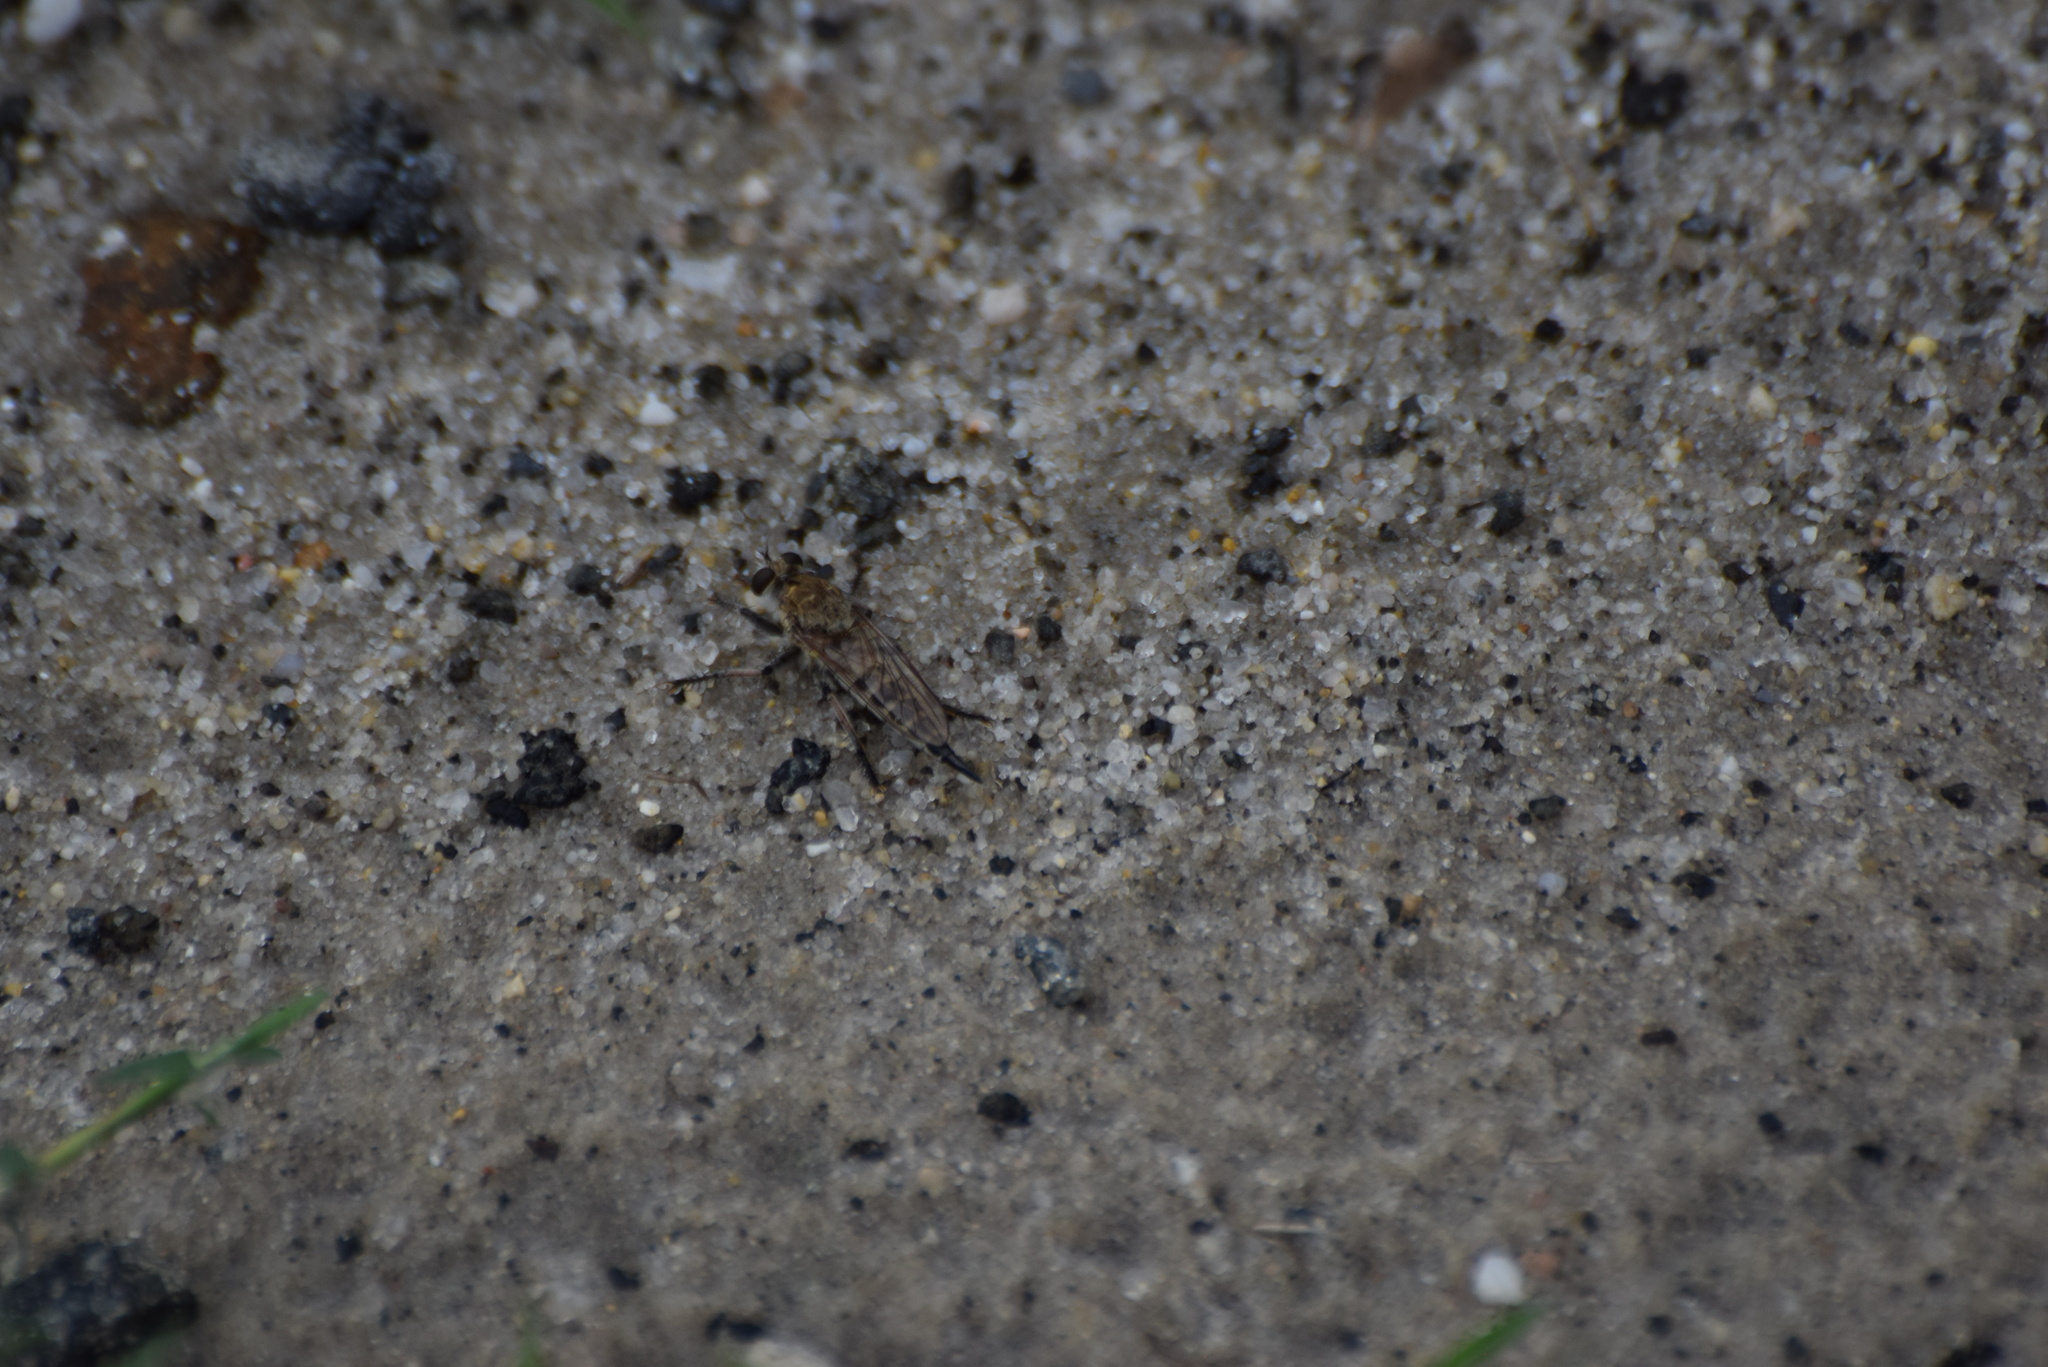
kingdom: Animalia
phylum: Arthropoda
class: Insecta
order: Diptera
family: Asilidae
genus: Efferia
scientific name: Efferia albibarbis
